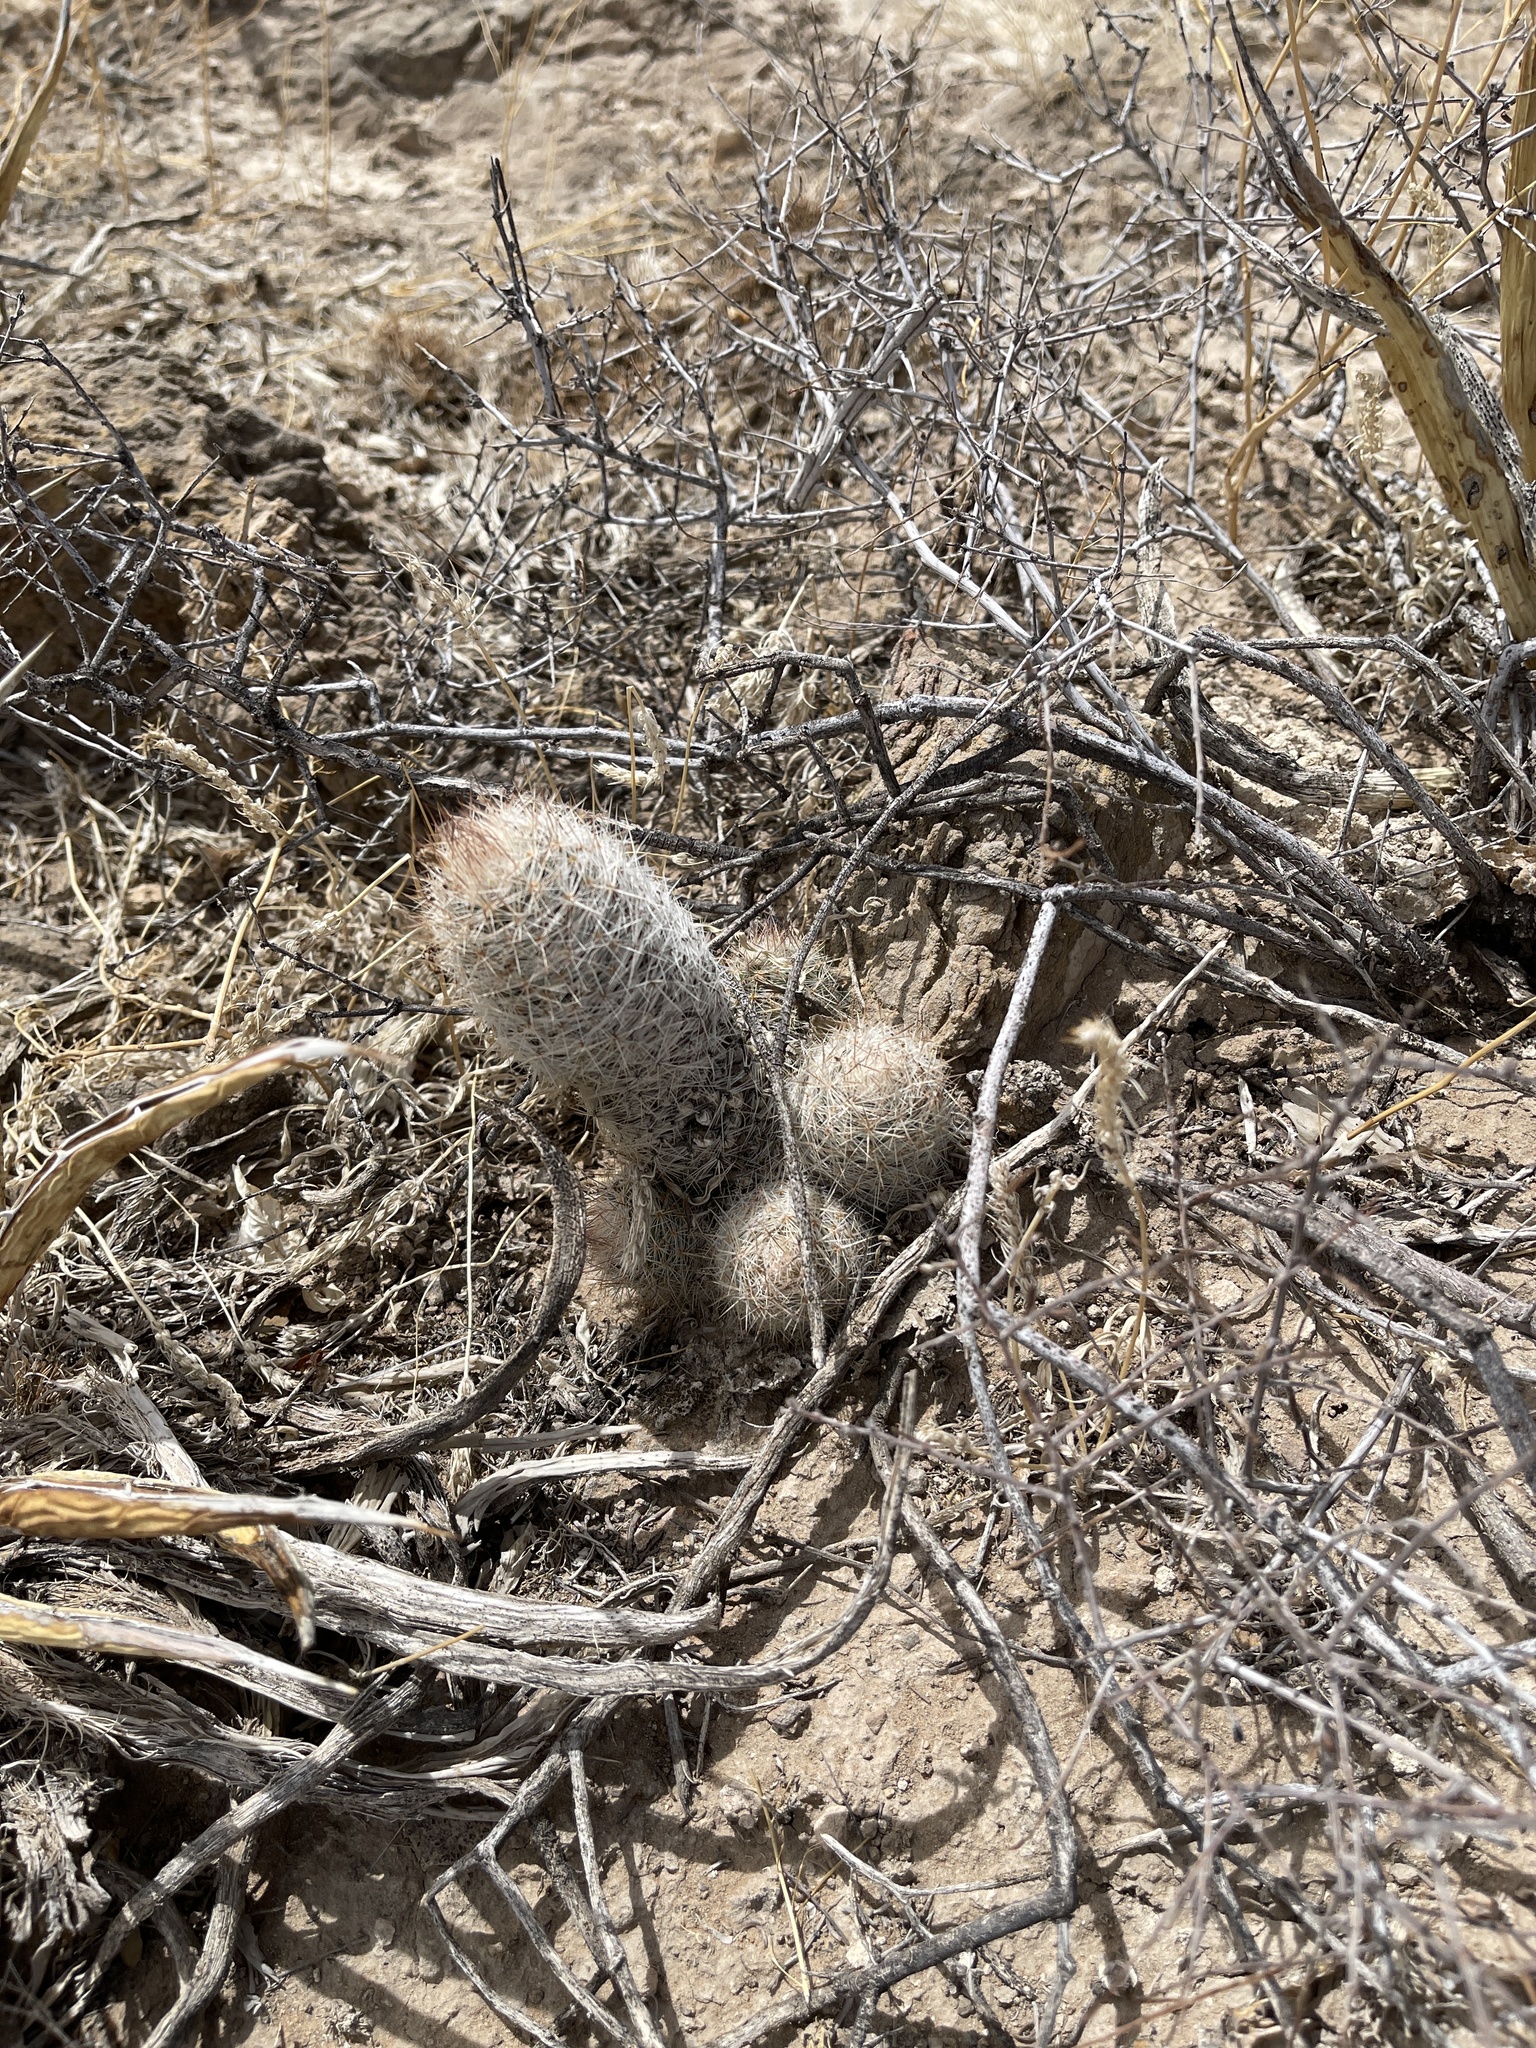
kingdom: Plantae
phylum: Tracheophyta
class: Magnoliopsida
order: Caryophyllales
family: Cactaceae
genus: Pelecyphora
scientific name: Pelecyphora tuberculosa
